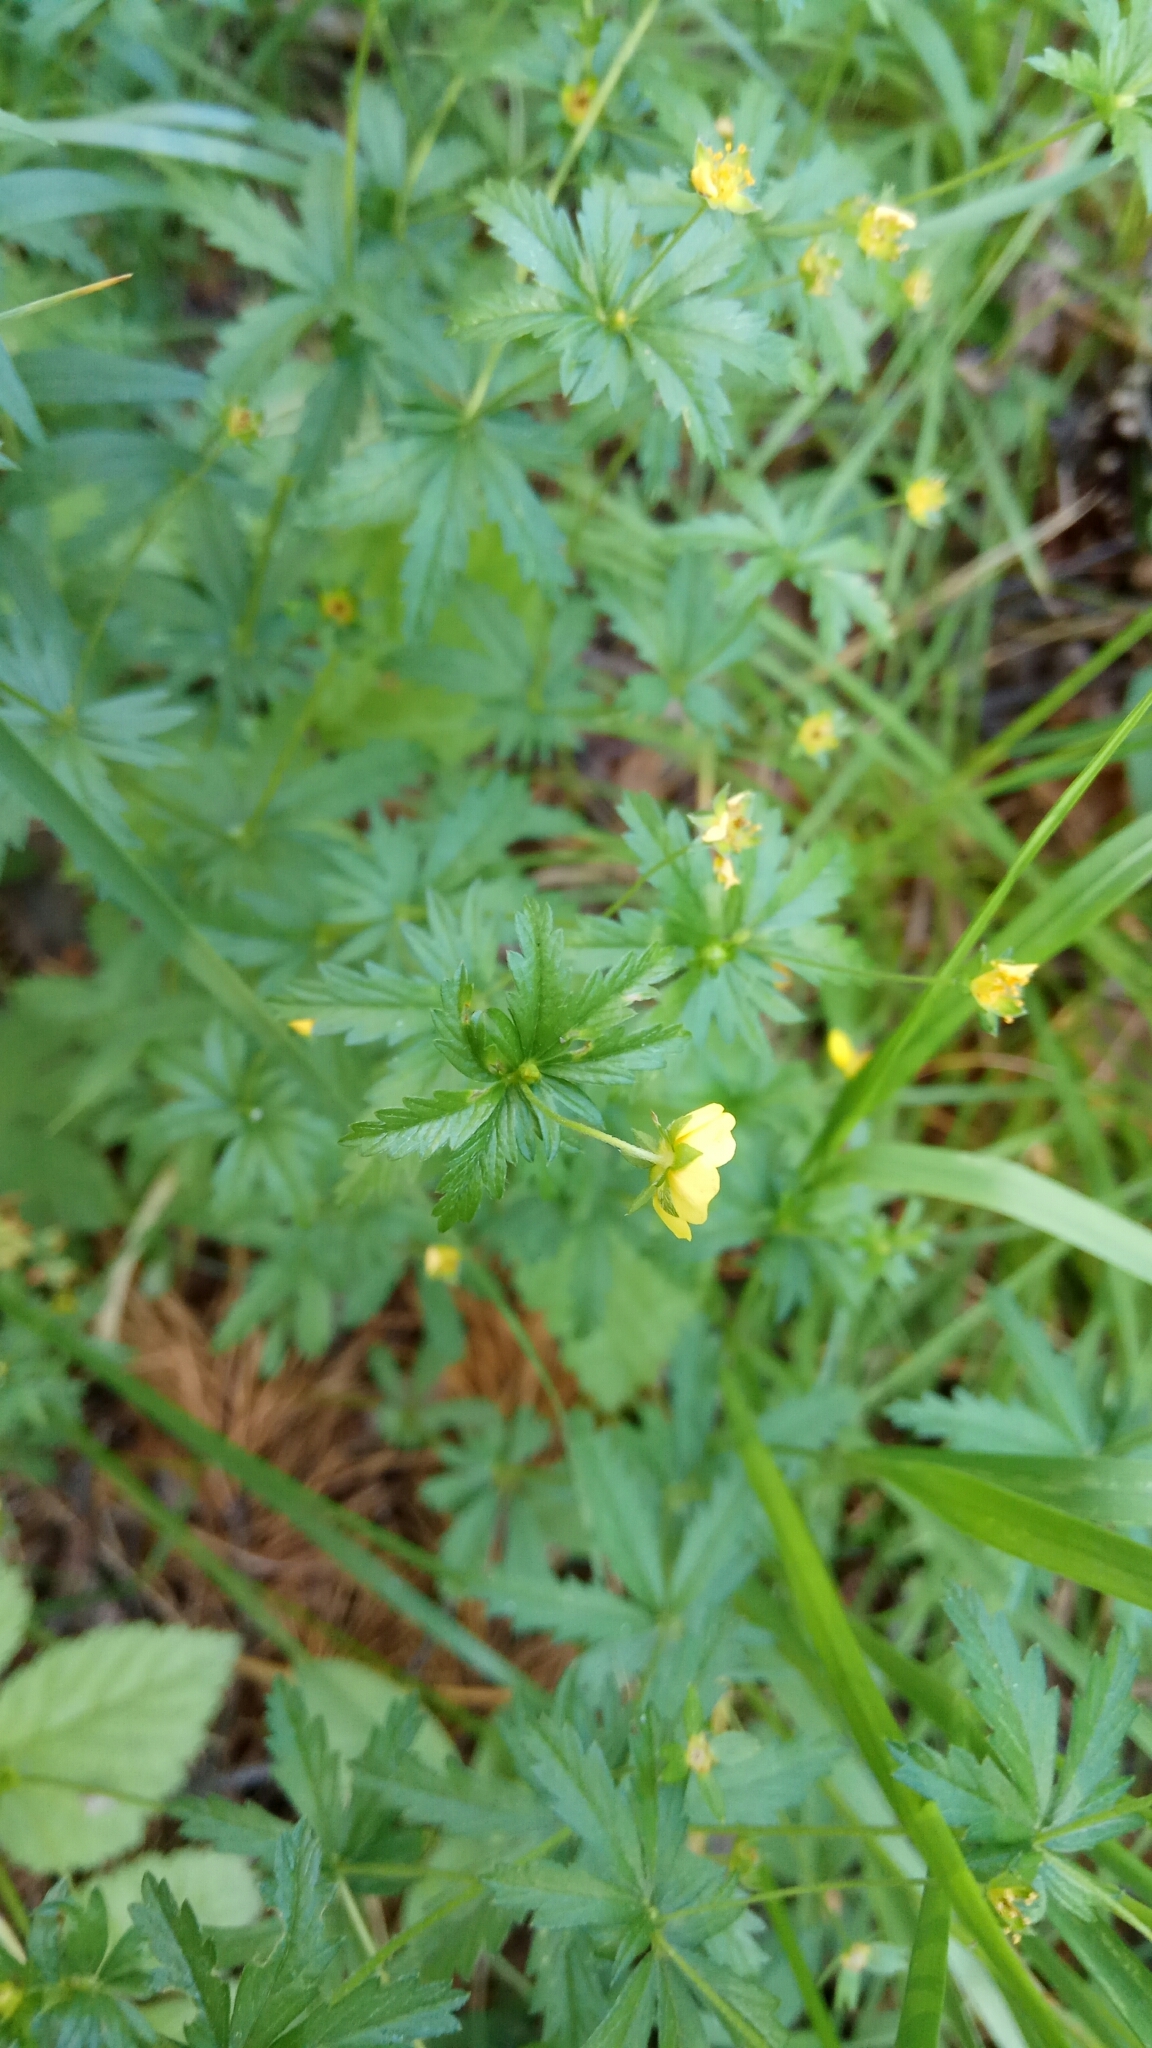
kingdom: Plantae
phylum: Tracheophyta
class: Magnoliopsida
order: Rosales
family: Rosaceae
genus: Potentilla
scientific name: Potentilla erecta
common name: Tormentil
